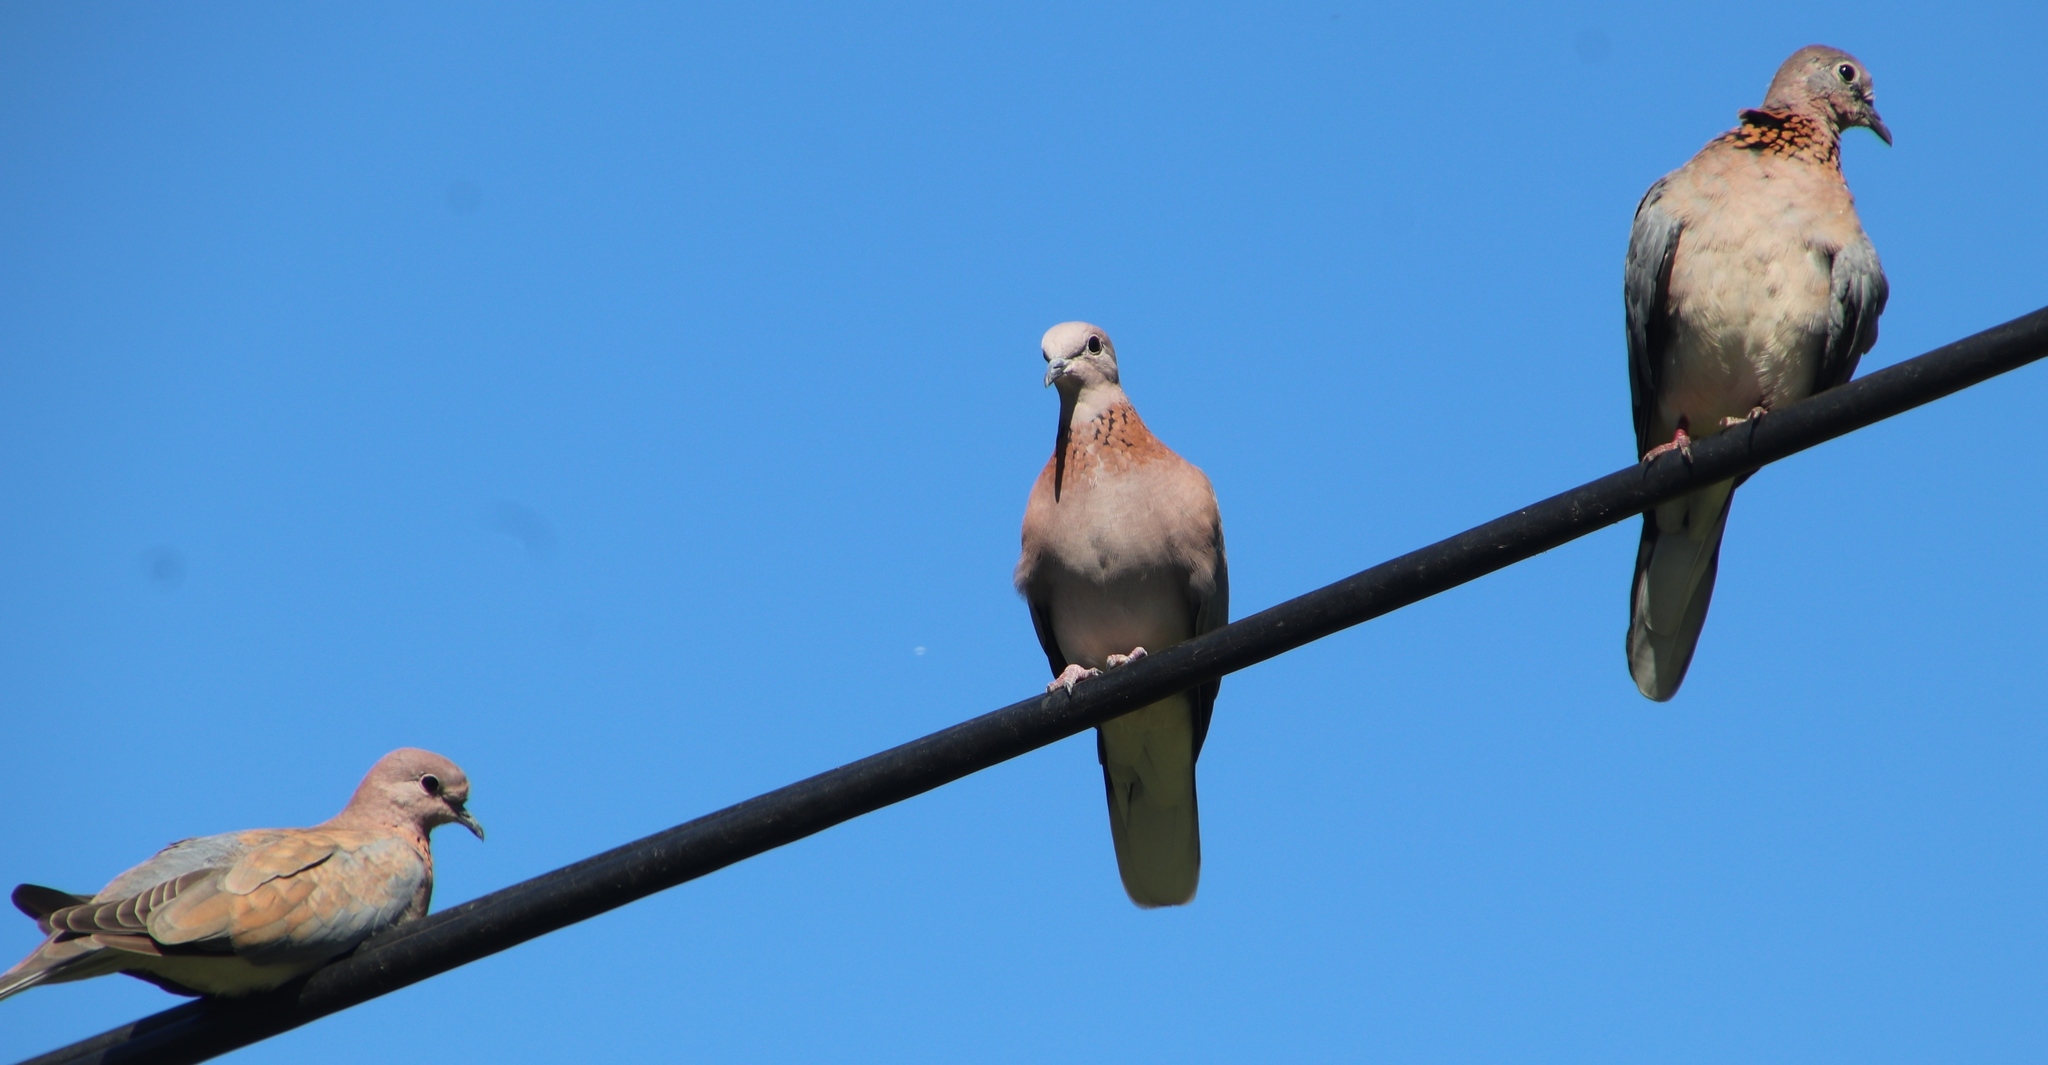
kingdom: Animalia
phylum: Chordata
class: Aves
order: Columbiformes
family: Columbidae
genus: Spilopelia
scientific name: Spilopelia senegalensis
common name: Laughing dove
